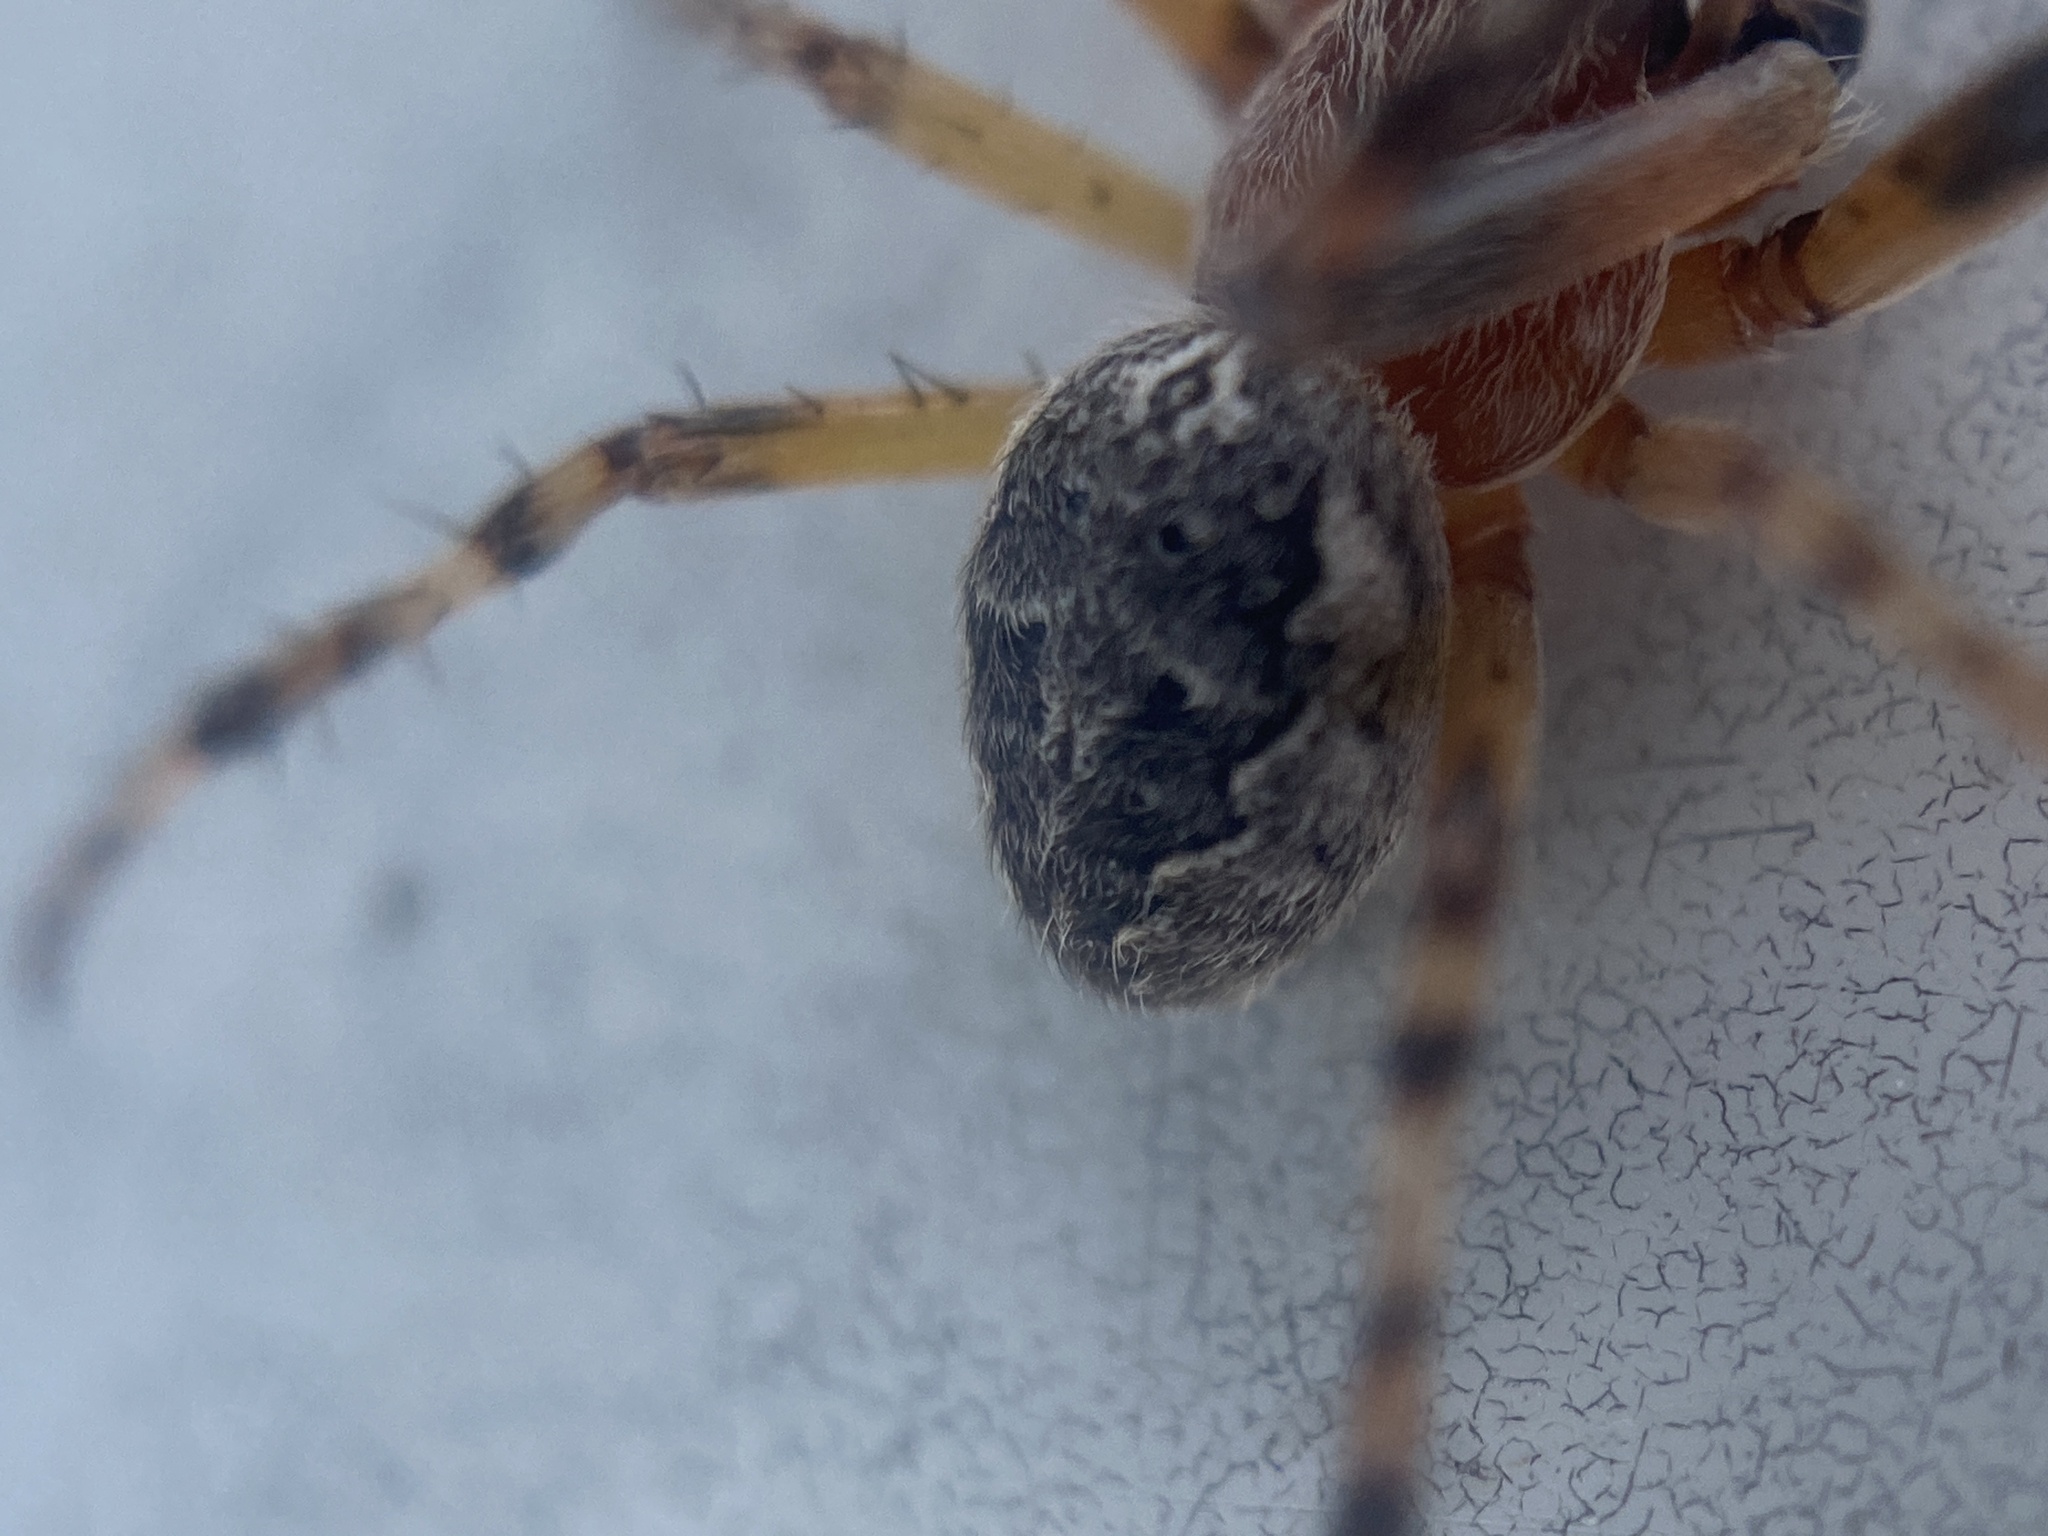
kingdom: Animalia
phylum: Arthropoda
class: Arachnida
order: Araneae
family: Araneidae
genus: Larinioides
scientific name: Larinioides patagiatus
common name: Ornamental orbweaver
